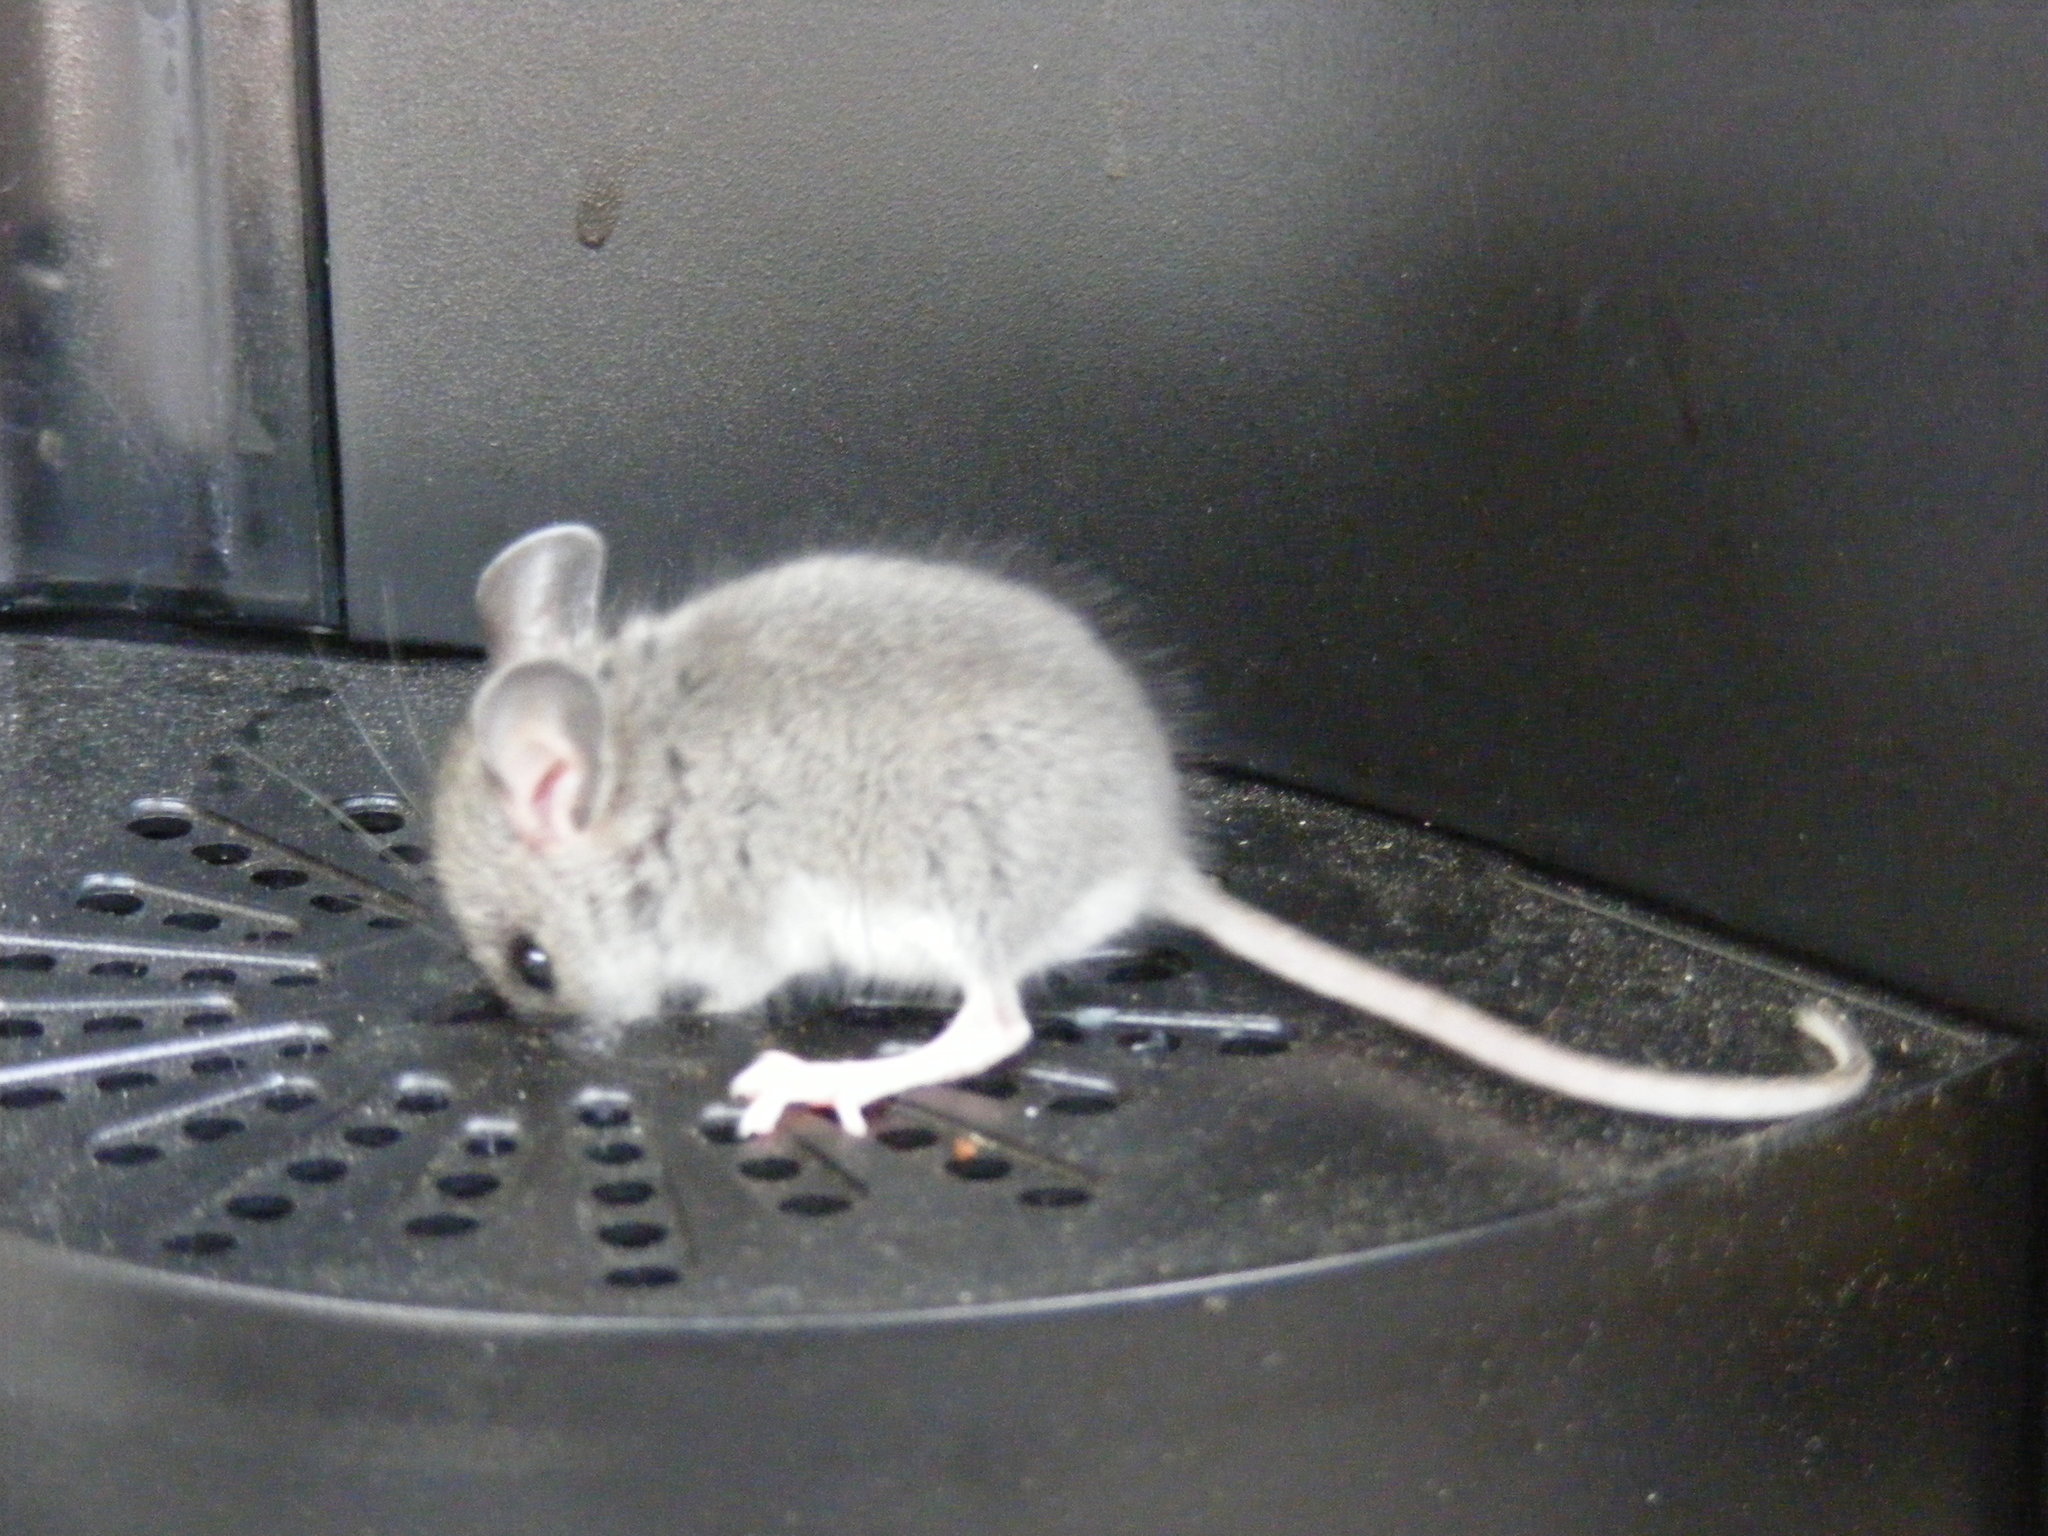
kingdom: Animalia
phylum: Chordata
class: Mammalia
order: Rodentia
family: Cricetidae
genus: Peromyscus
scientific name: Peromyscus
